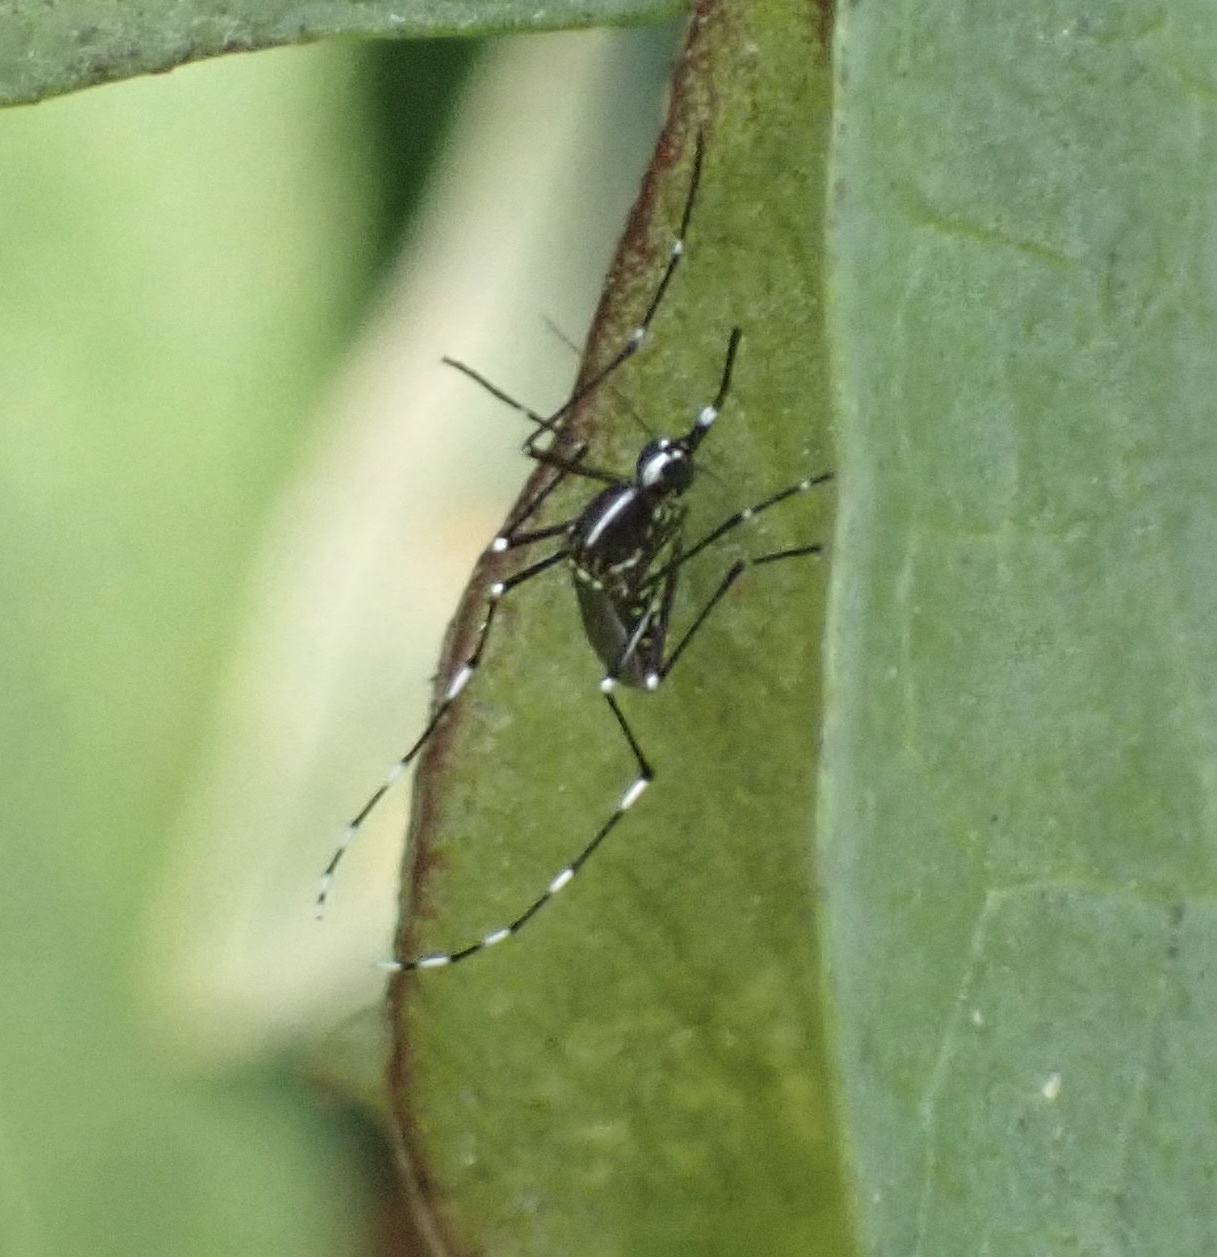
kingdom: Animalia
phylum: Arthropoda
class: Insecta
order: Diptera
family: Culicidae
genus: Aedes
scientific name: Aedes albopictus
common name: Tiger mosquito
